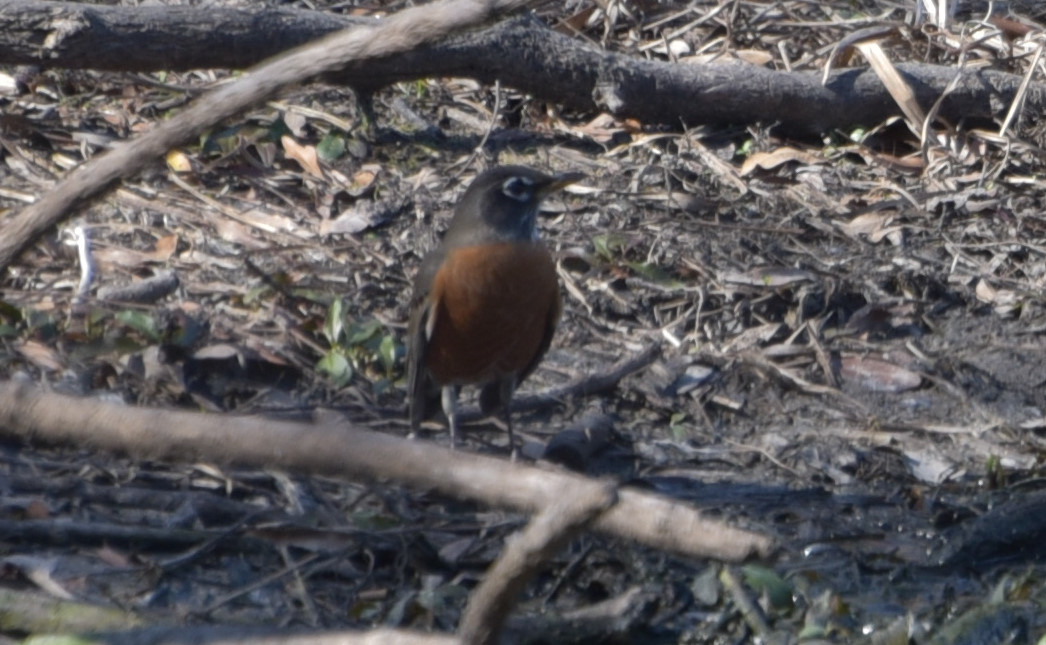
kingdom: Animalia
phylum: Chordata
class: Aves
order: Passeriformes
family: Turdidae
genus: Turdus
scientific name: Turdus migratorius
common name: American robin
